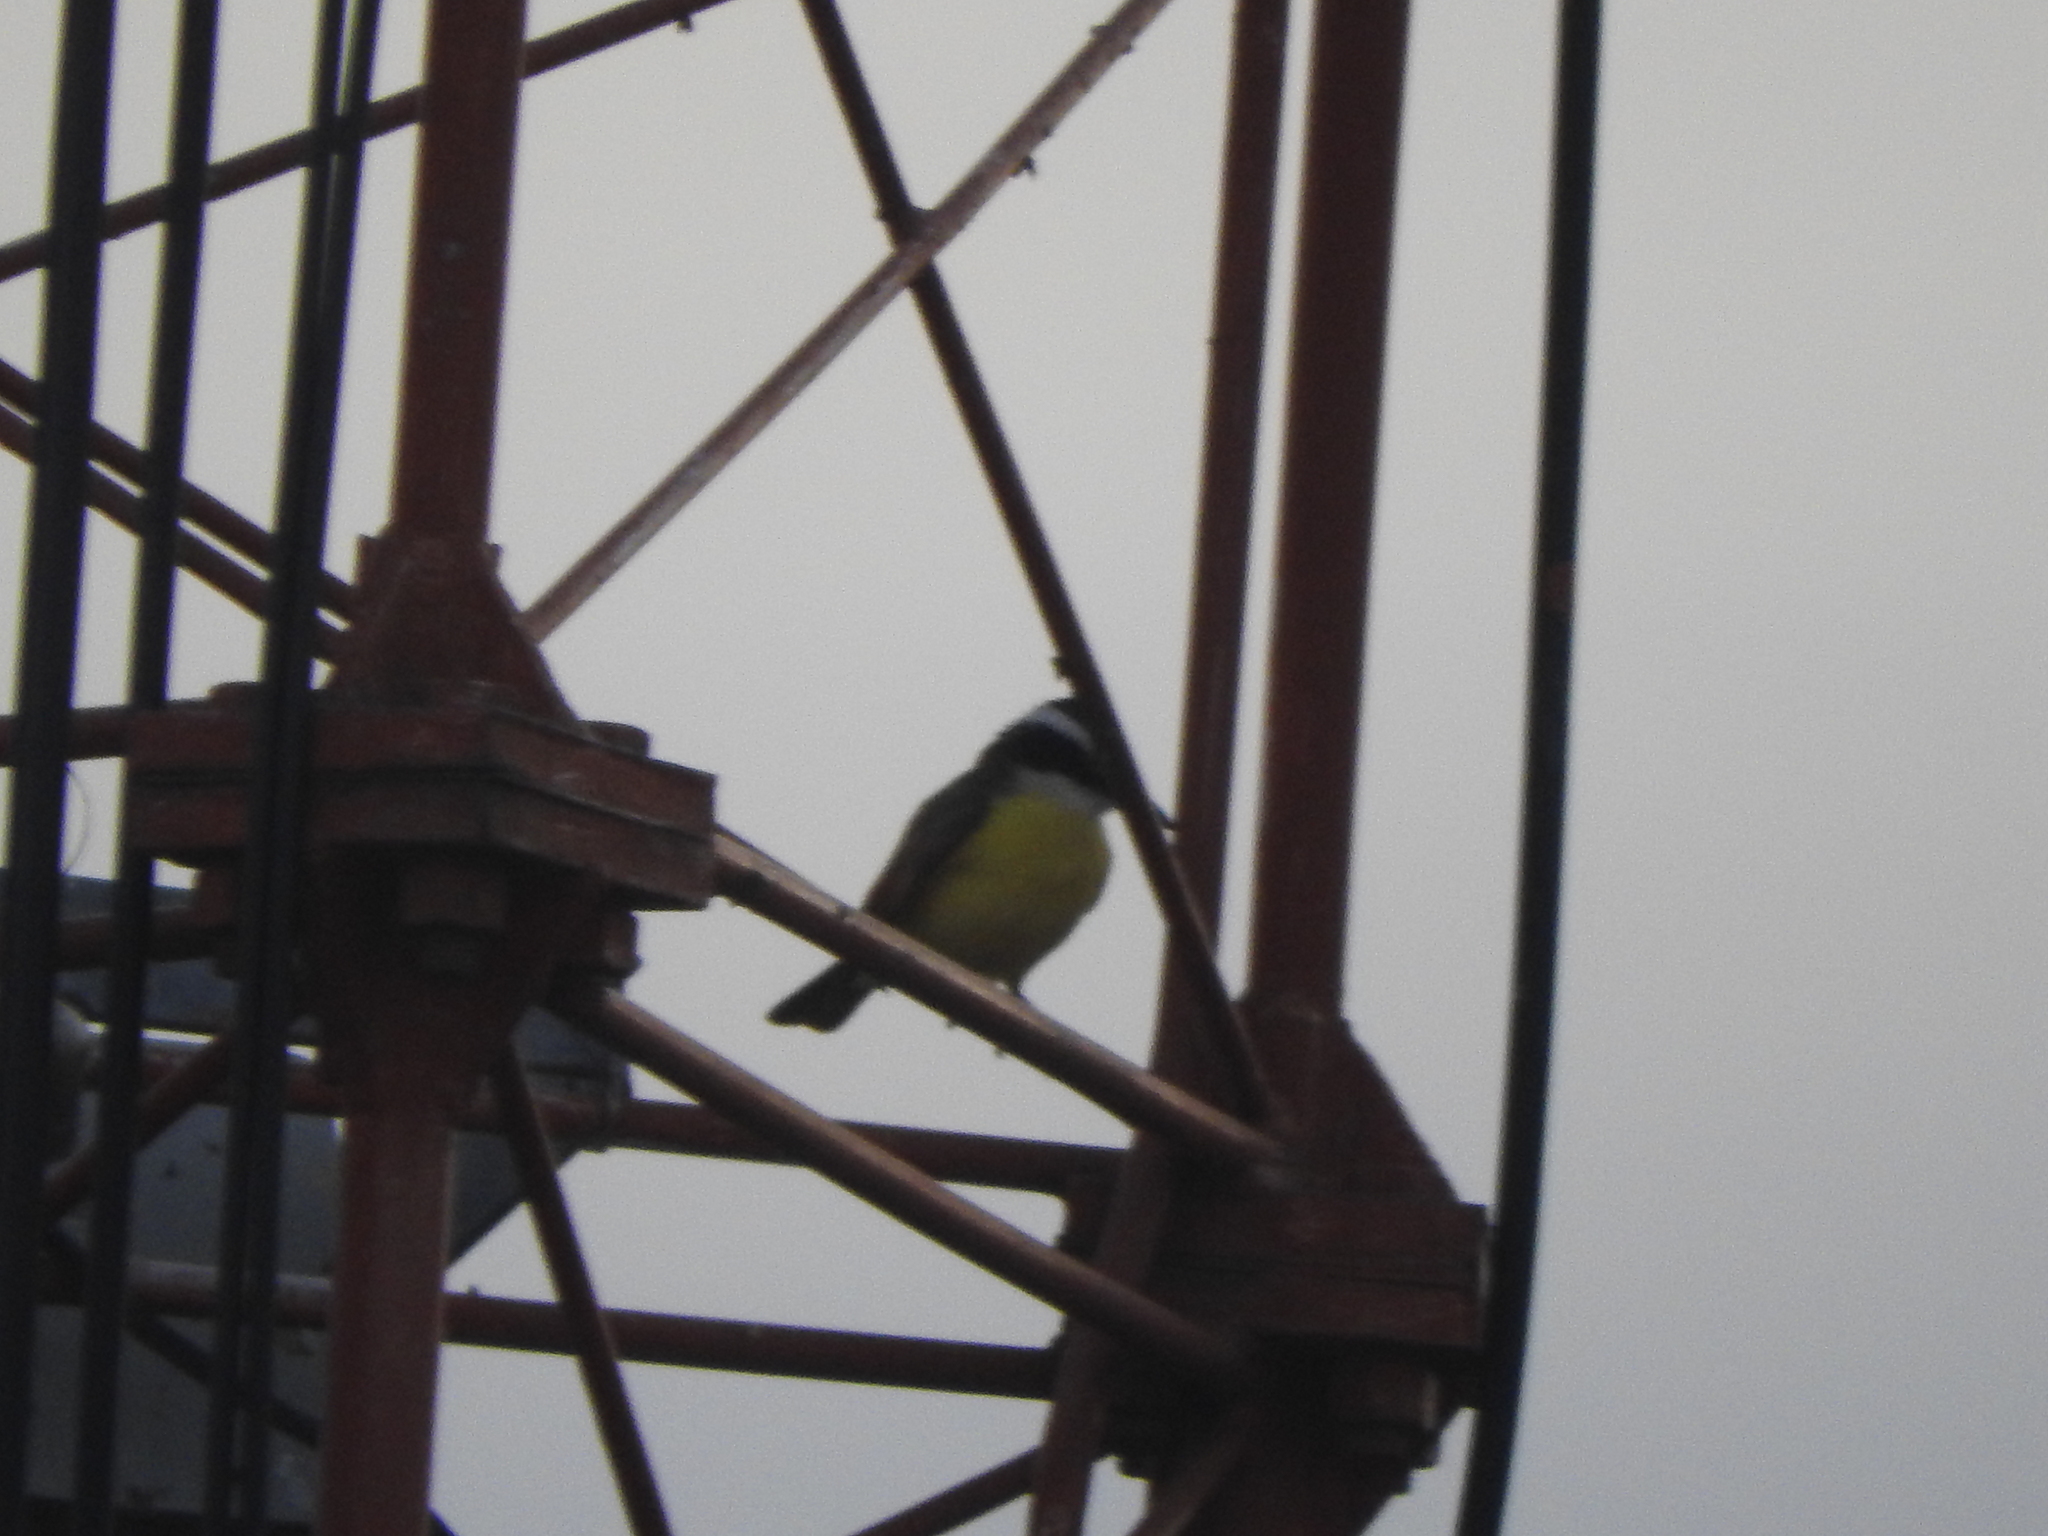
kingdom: Animalia
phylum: Chordata
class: Aves
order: Passeriformes
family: Tyrannidae
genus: Pitangus
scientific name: Pitangus sulphuratus
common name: Great kiskadee
